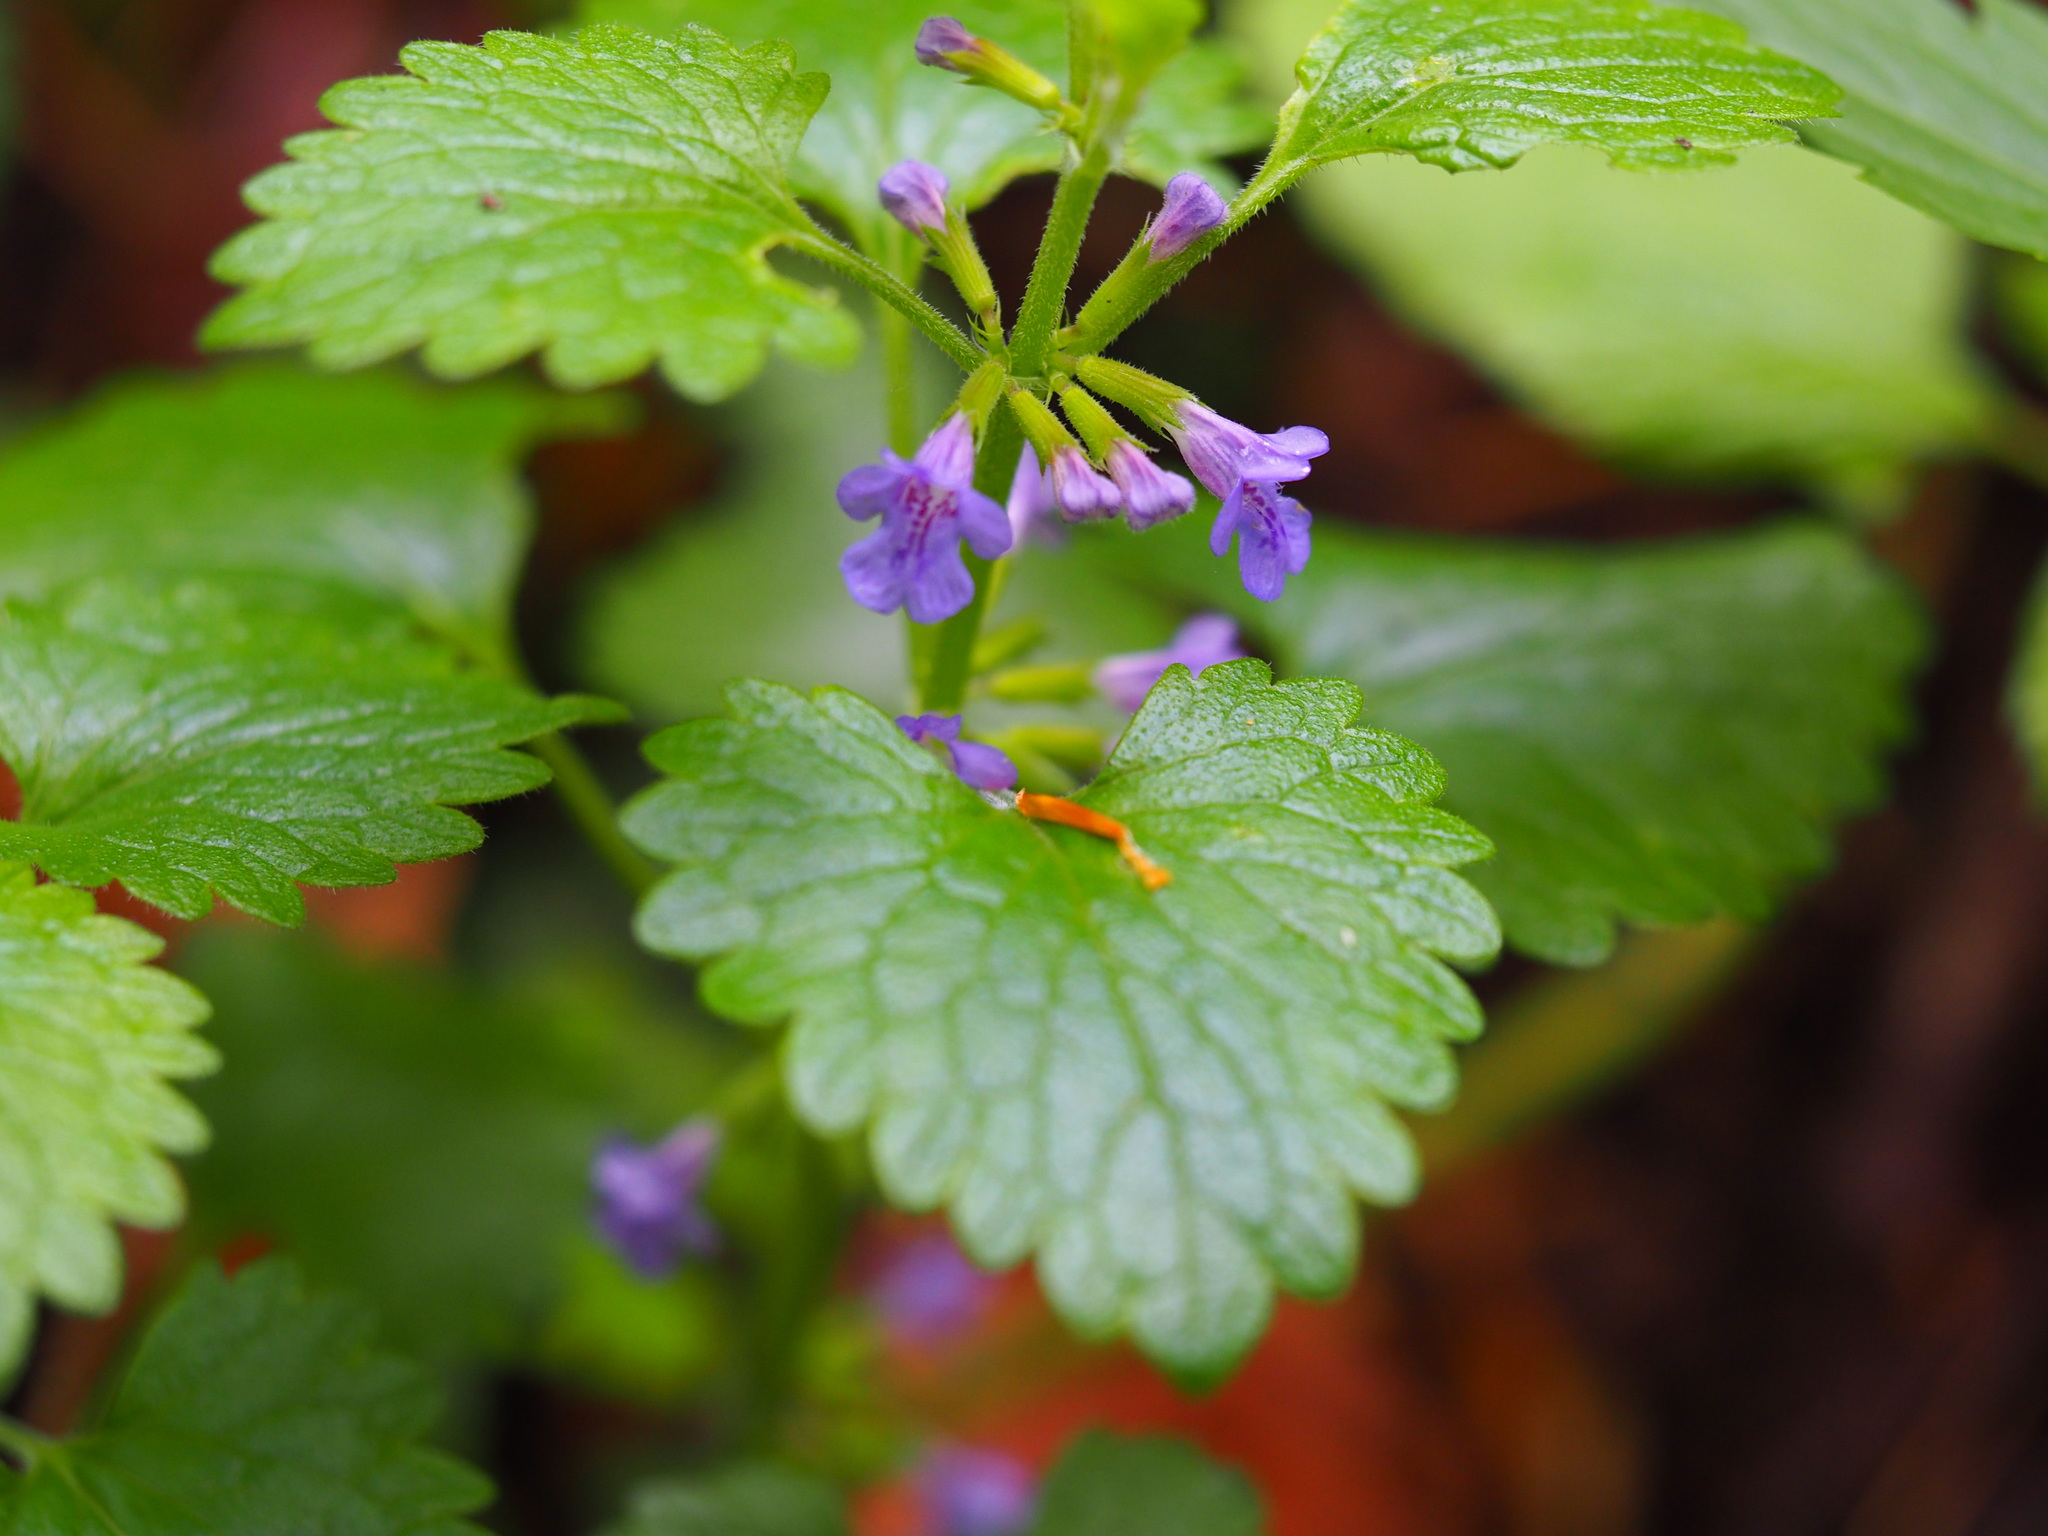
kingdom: Plantae
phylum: Tracheophyta
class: Magnoliopsida
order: Lamiales
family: Lamiaceae
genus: Glechoma
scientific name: Glechoma hederacea
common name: Ground ivy
